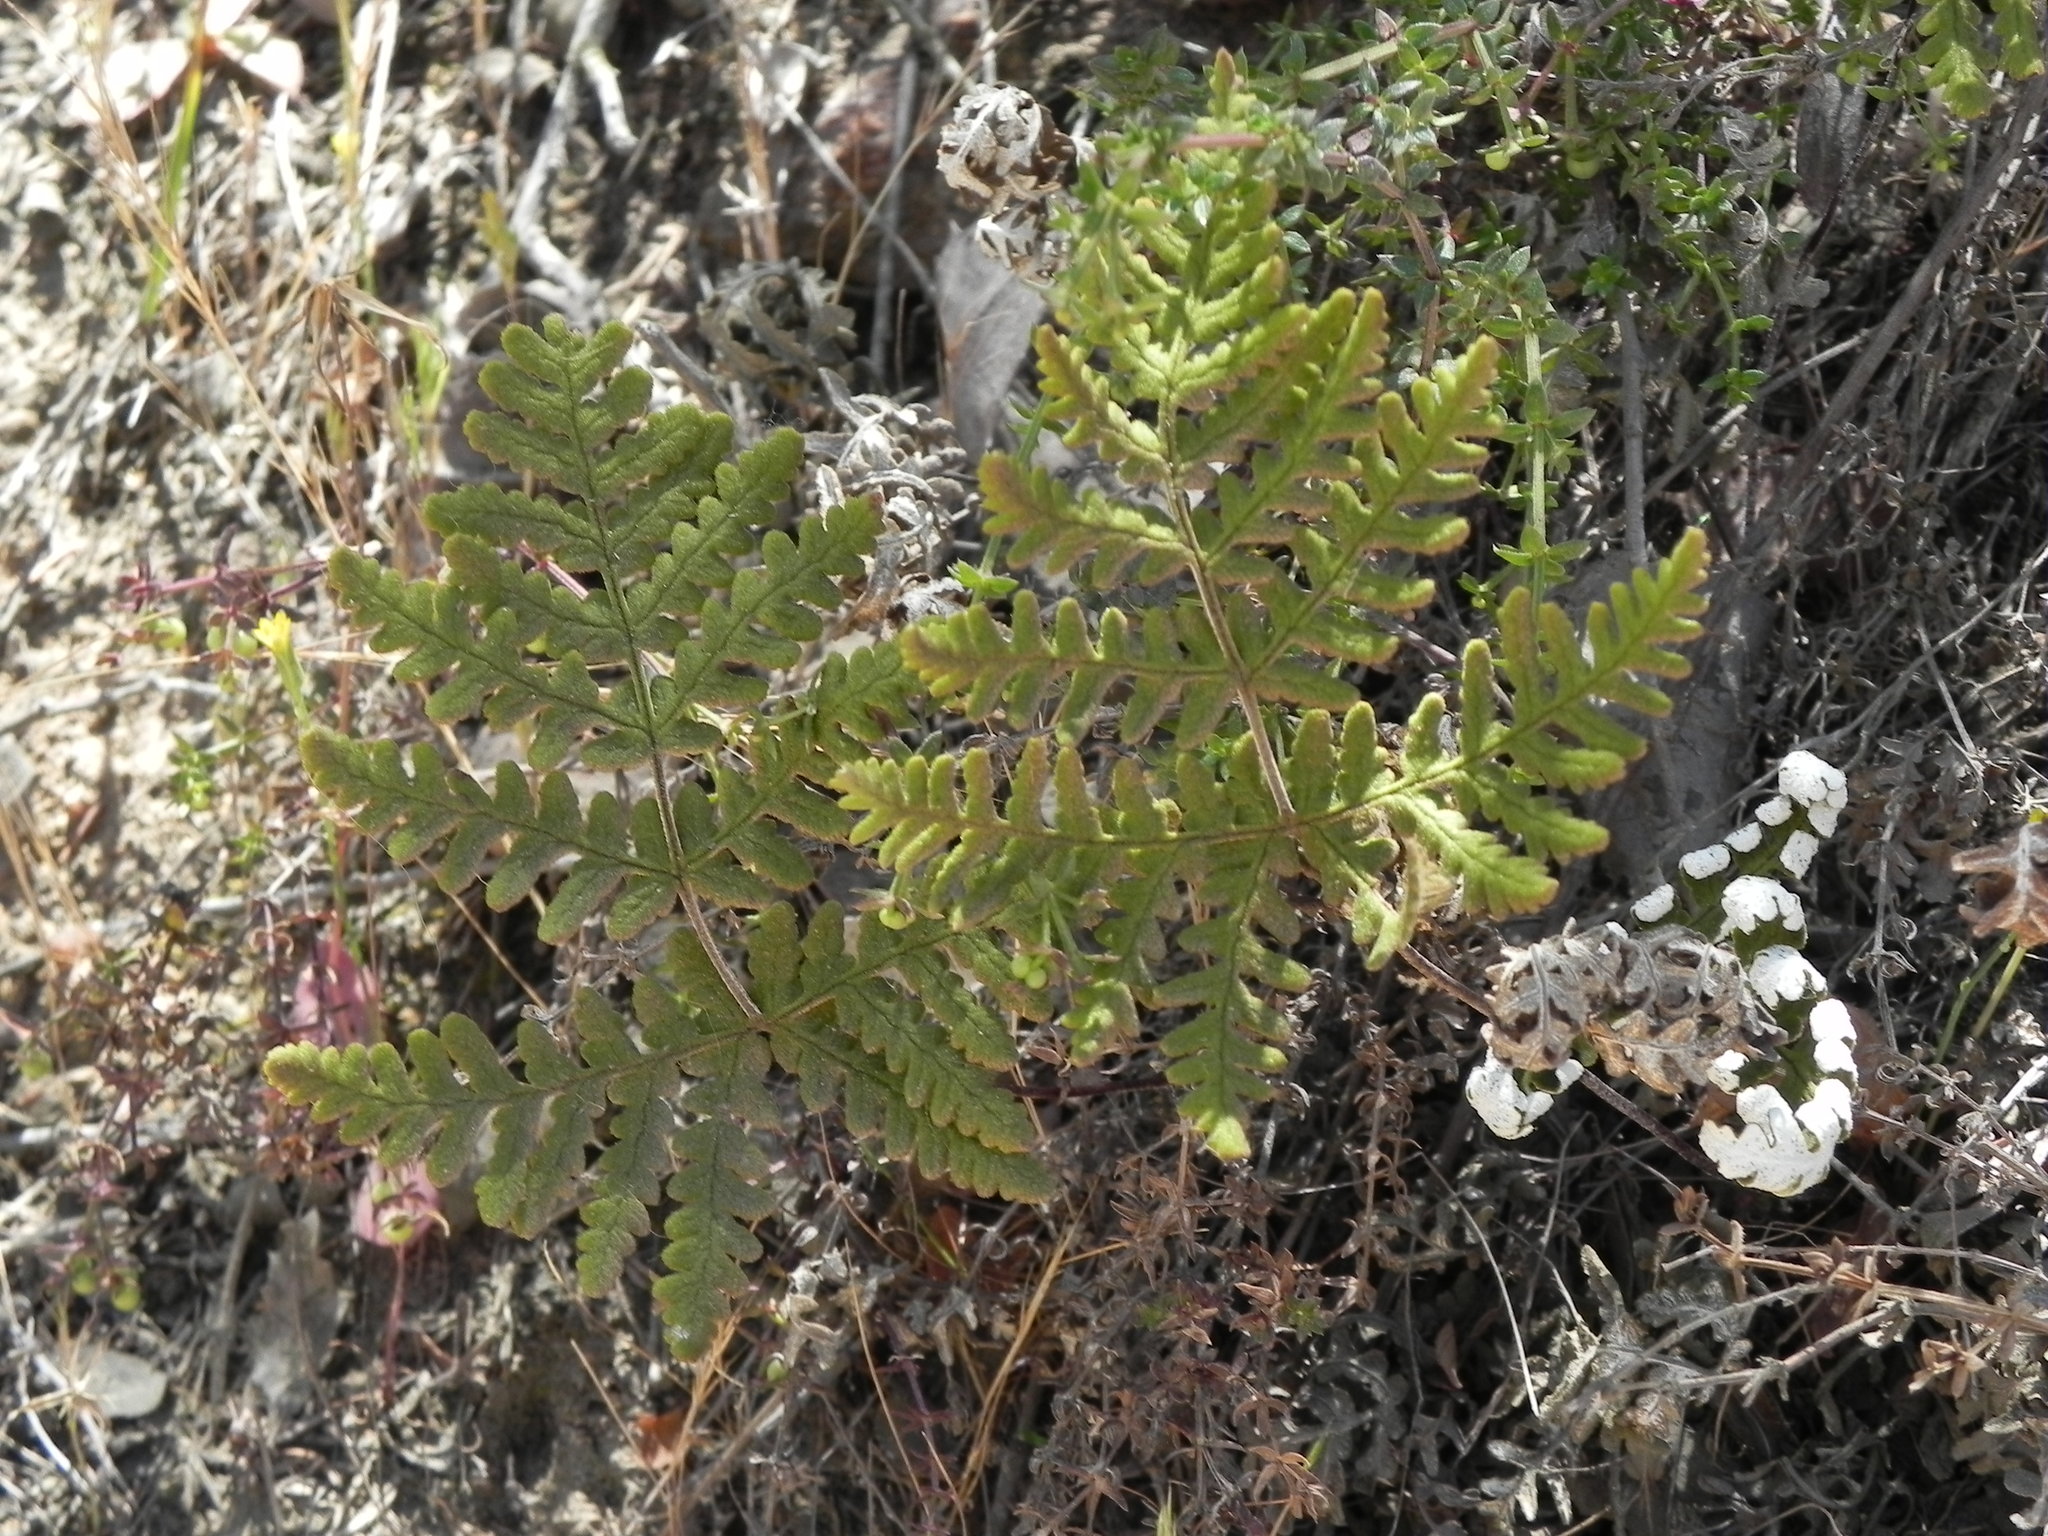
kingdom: Plantae
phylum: Tracheophyta
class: Polypodiopsida
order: Polypodiales
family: Pteridaceae
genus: Pentagramma
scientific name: Pentagramma glanduloviscida
